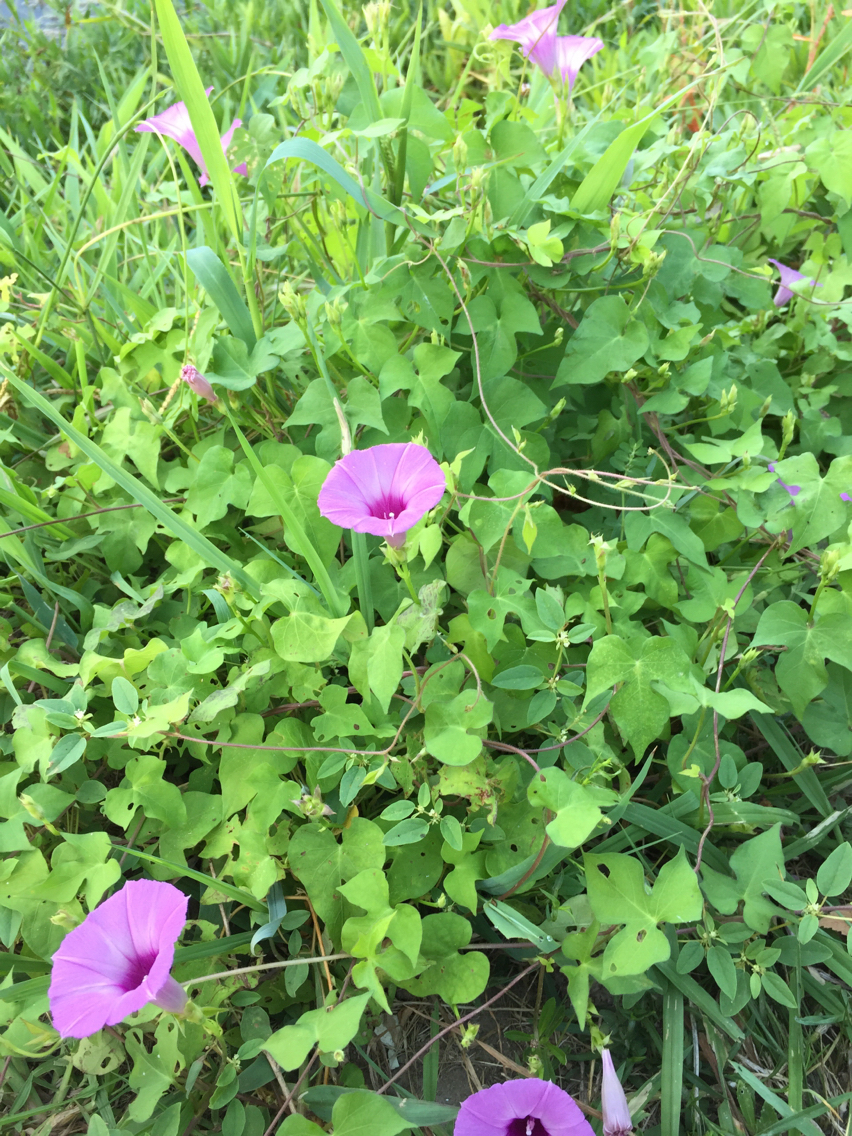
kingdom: Plantae
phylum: Tracheophyta
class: Magnoliopsida
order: Solanales
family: Convolvulaceae
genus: Ipomoea
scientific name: Ipomoea cordatotriloba
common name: Cotton morning glory
